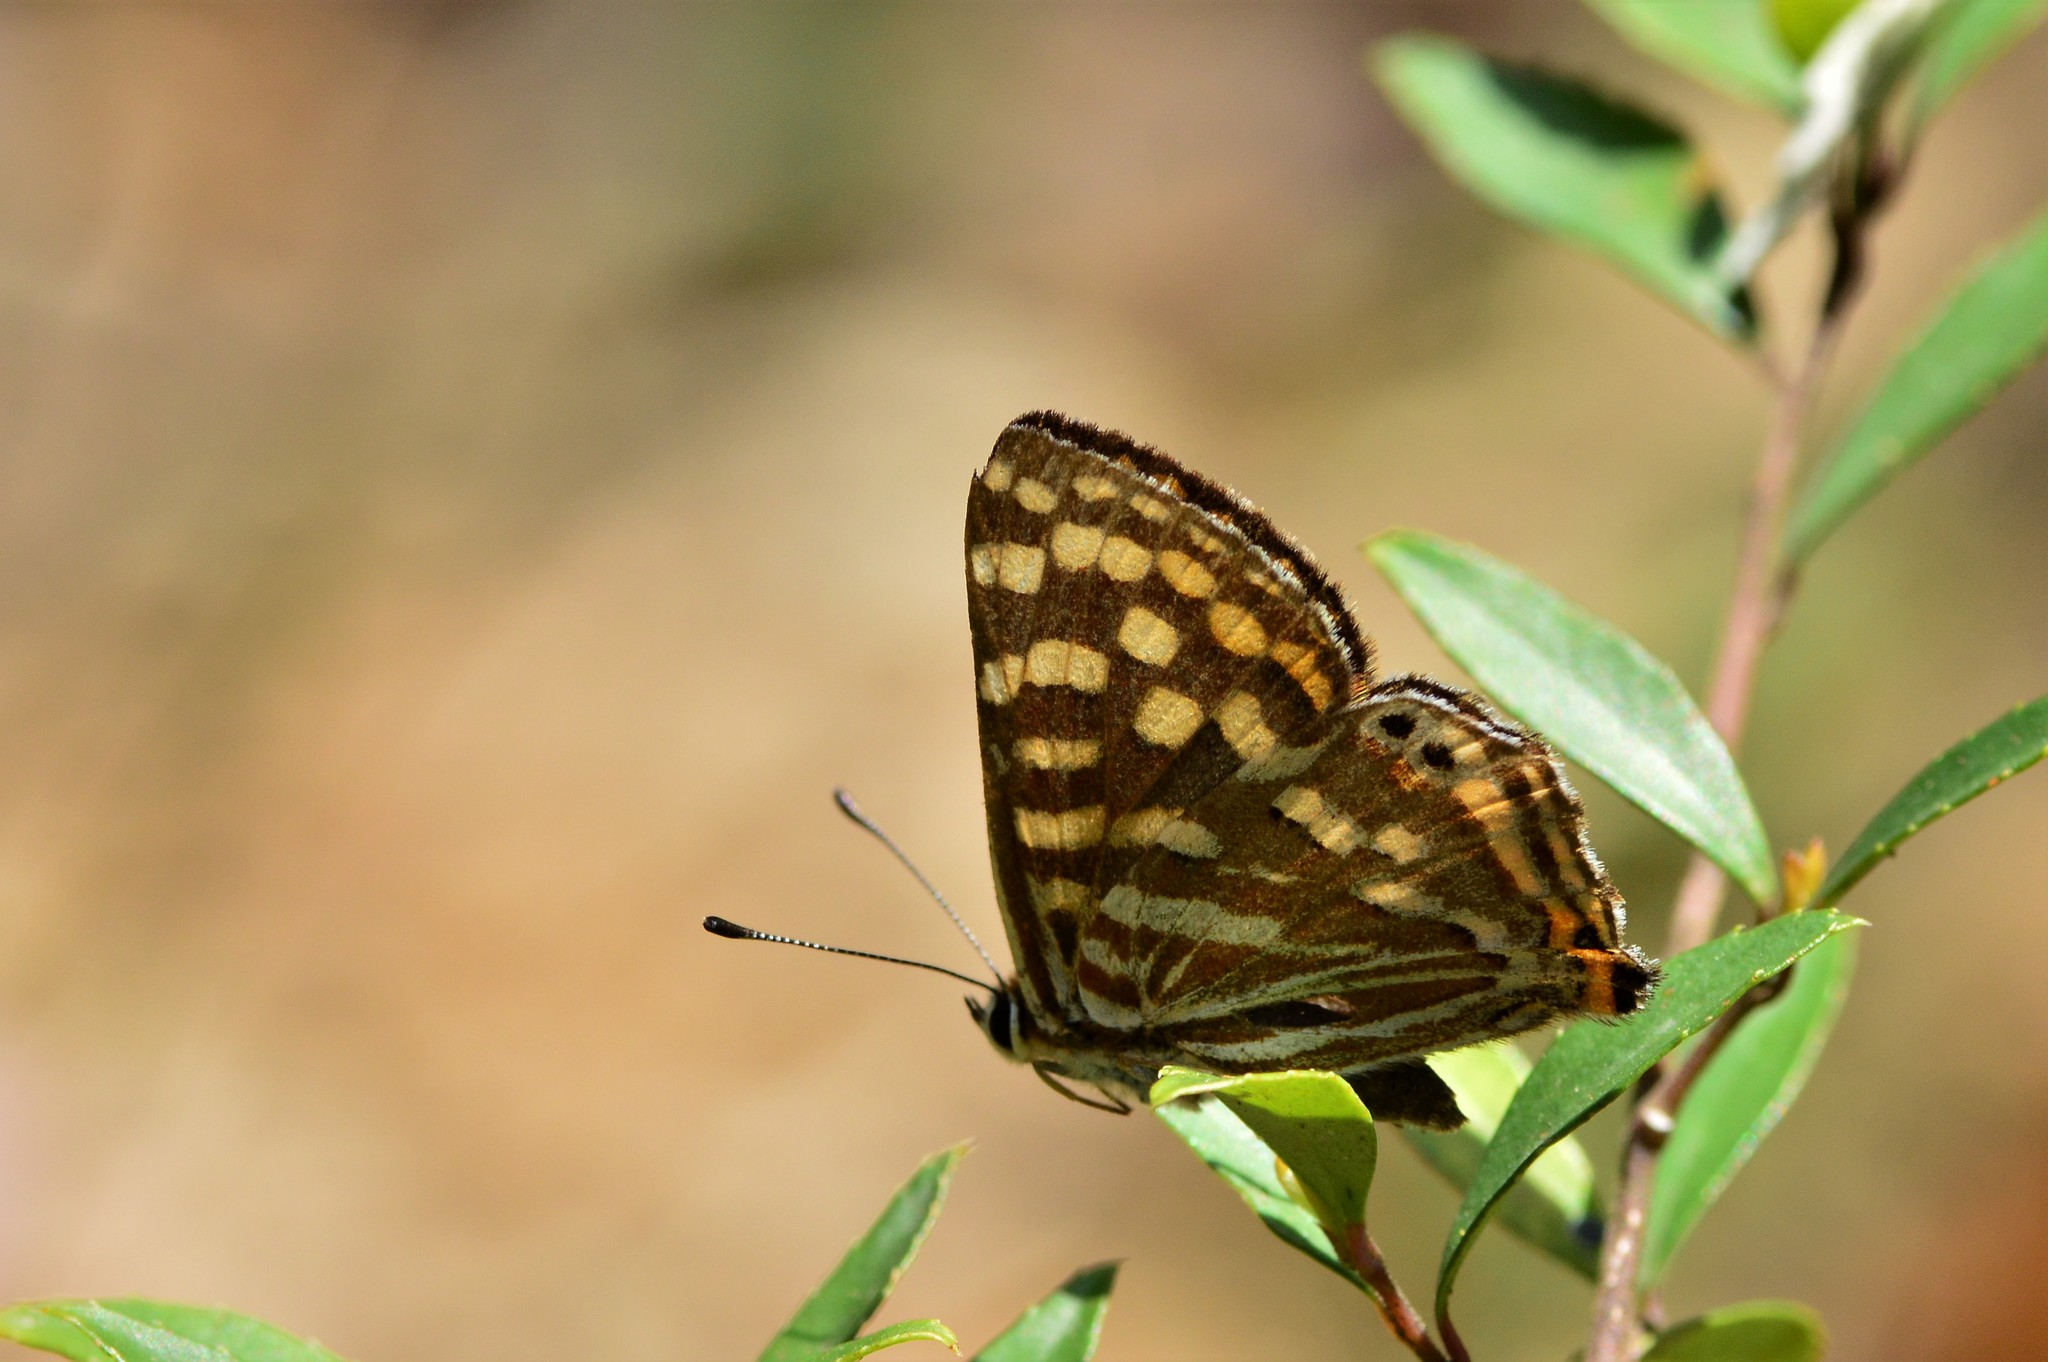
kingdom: Animalia
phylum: Arthropoda
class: Insecta
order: Lepidoptera
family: Lycaenidae
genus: Dodona
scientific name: Dodona durga
